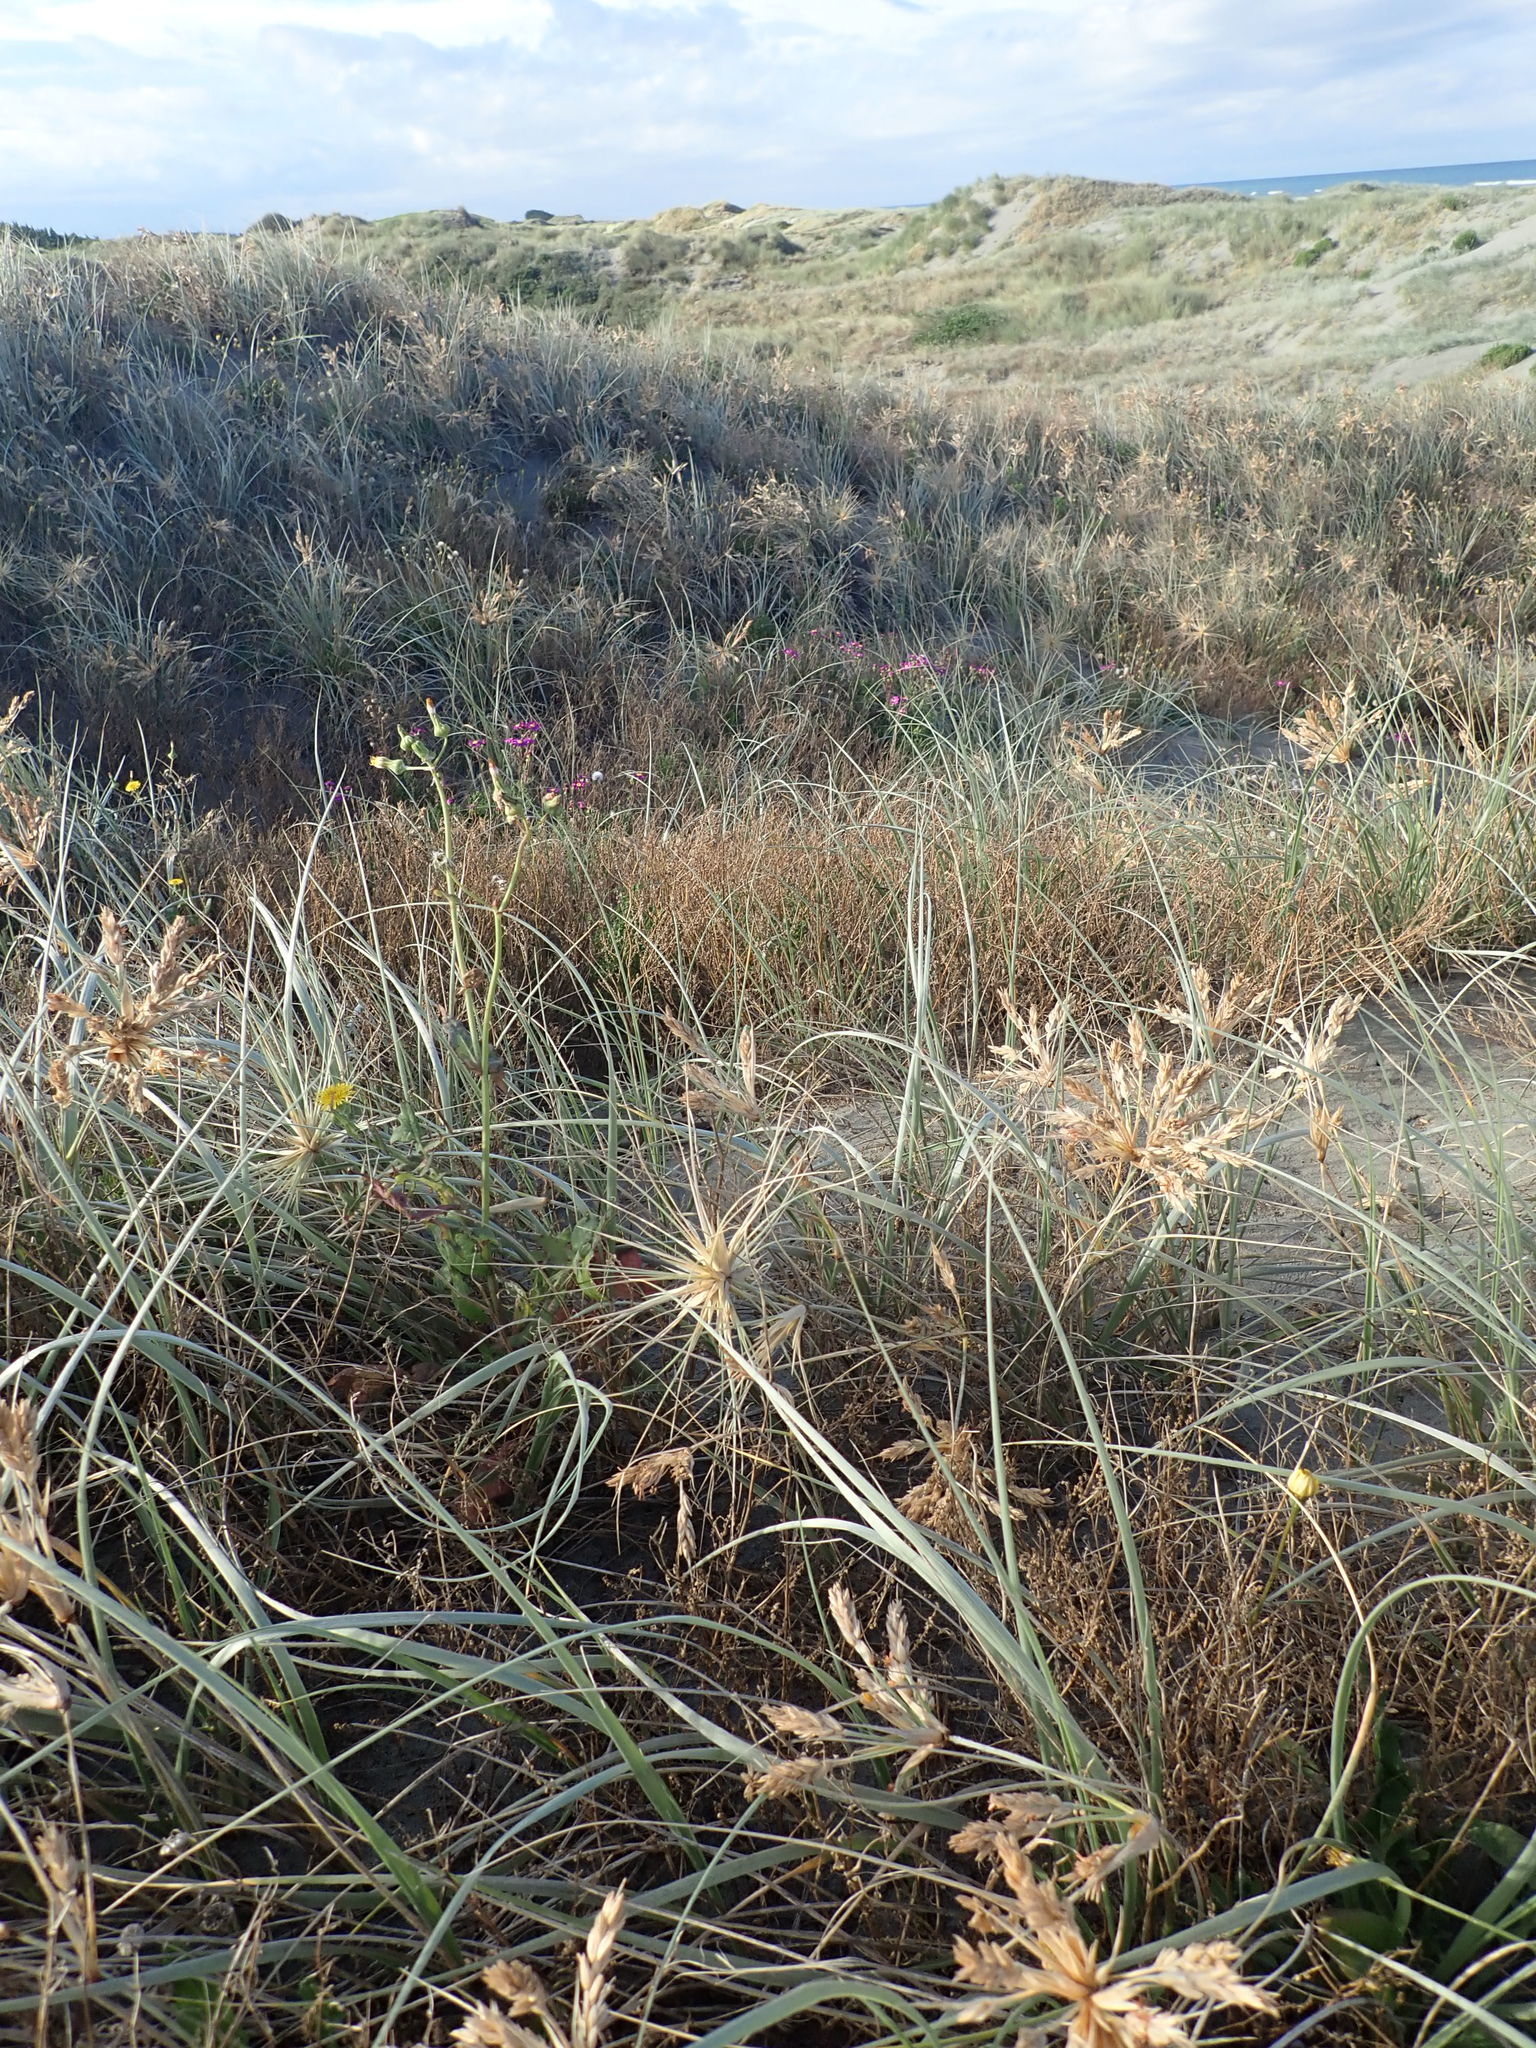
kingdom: Plantae
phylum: Tracheophyta
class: Magnoliopsida
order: Asterales
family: Asteraceae
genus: Sonchus
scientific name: Sonchus oleraceus
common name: Common sowthistle
